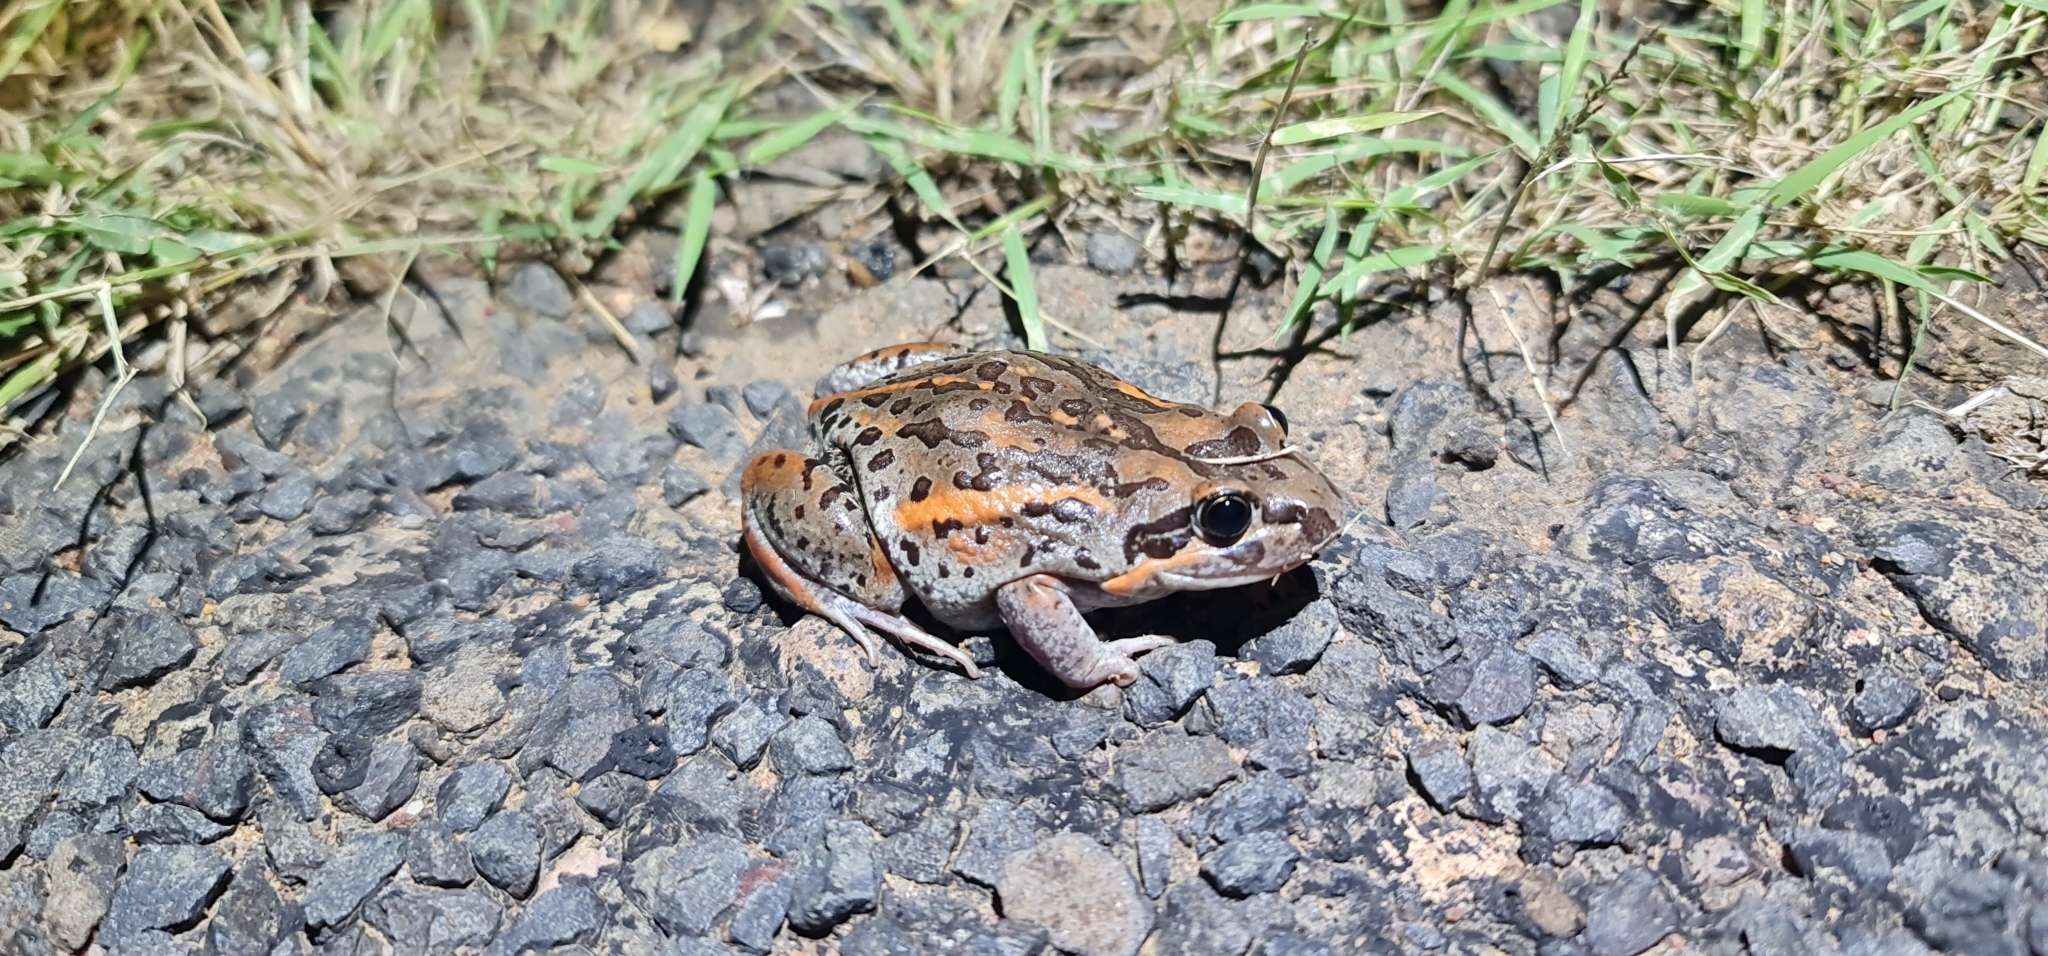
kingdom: Animalia
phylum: Chordata
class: Amphibia
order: Anura
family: Limnodynastidae
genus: Limnodynastes
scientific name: Limnodynastes salmini
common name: Salmon-striped frog
